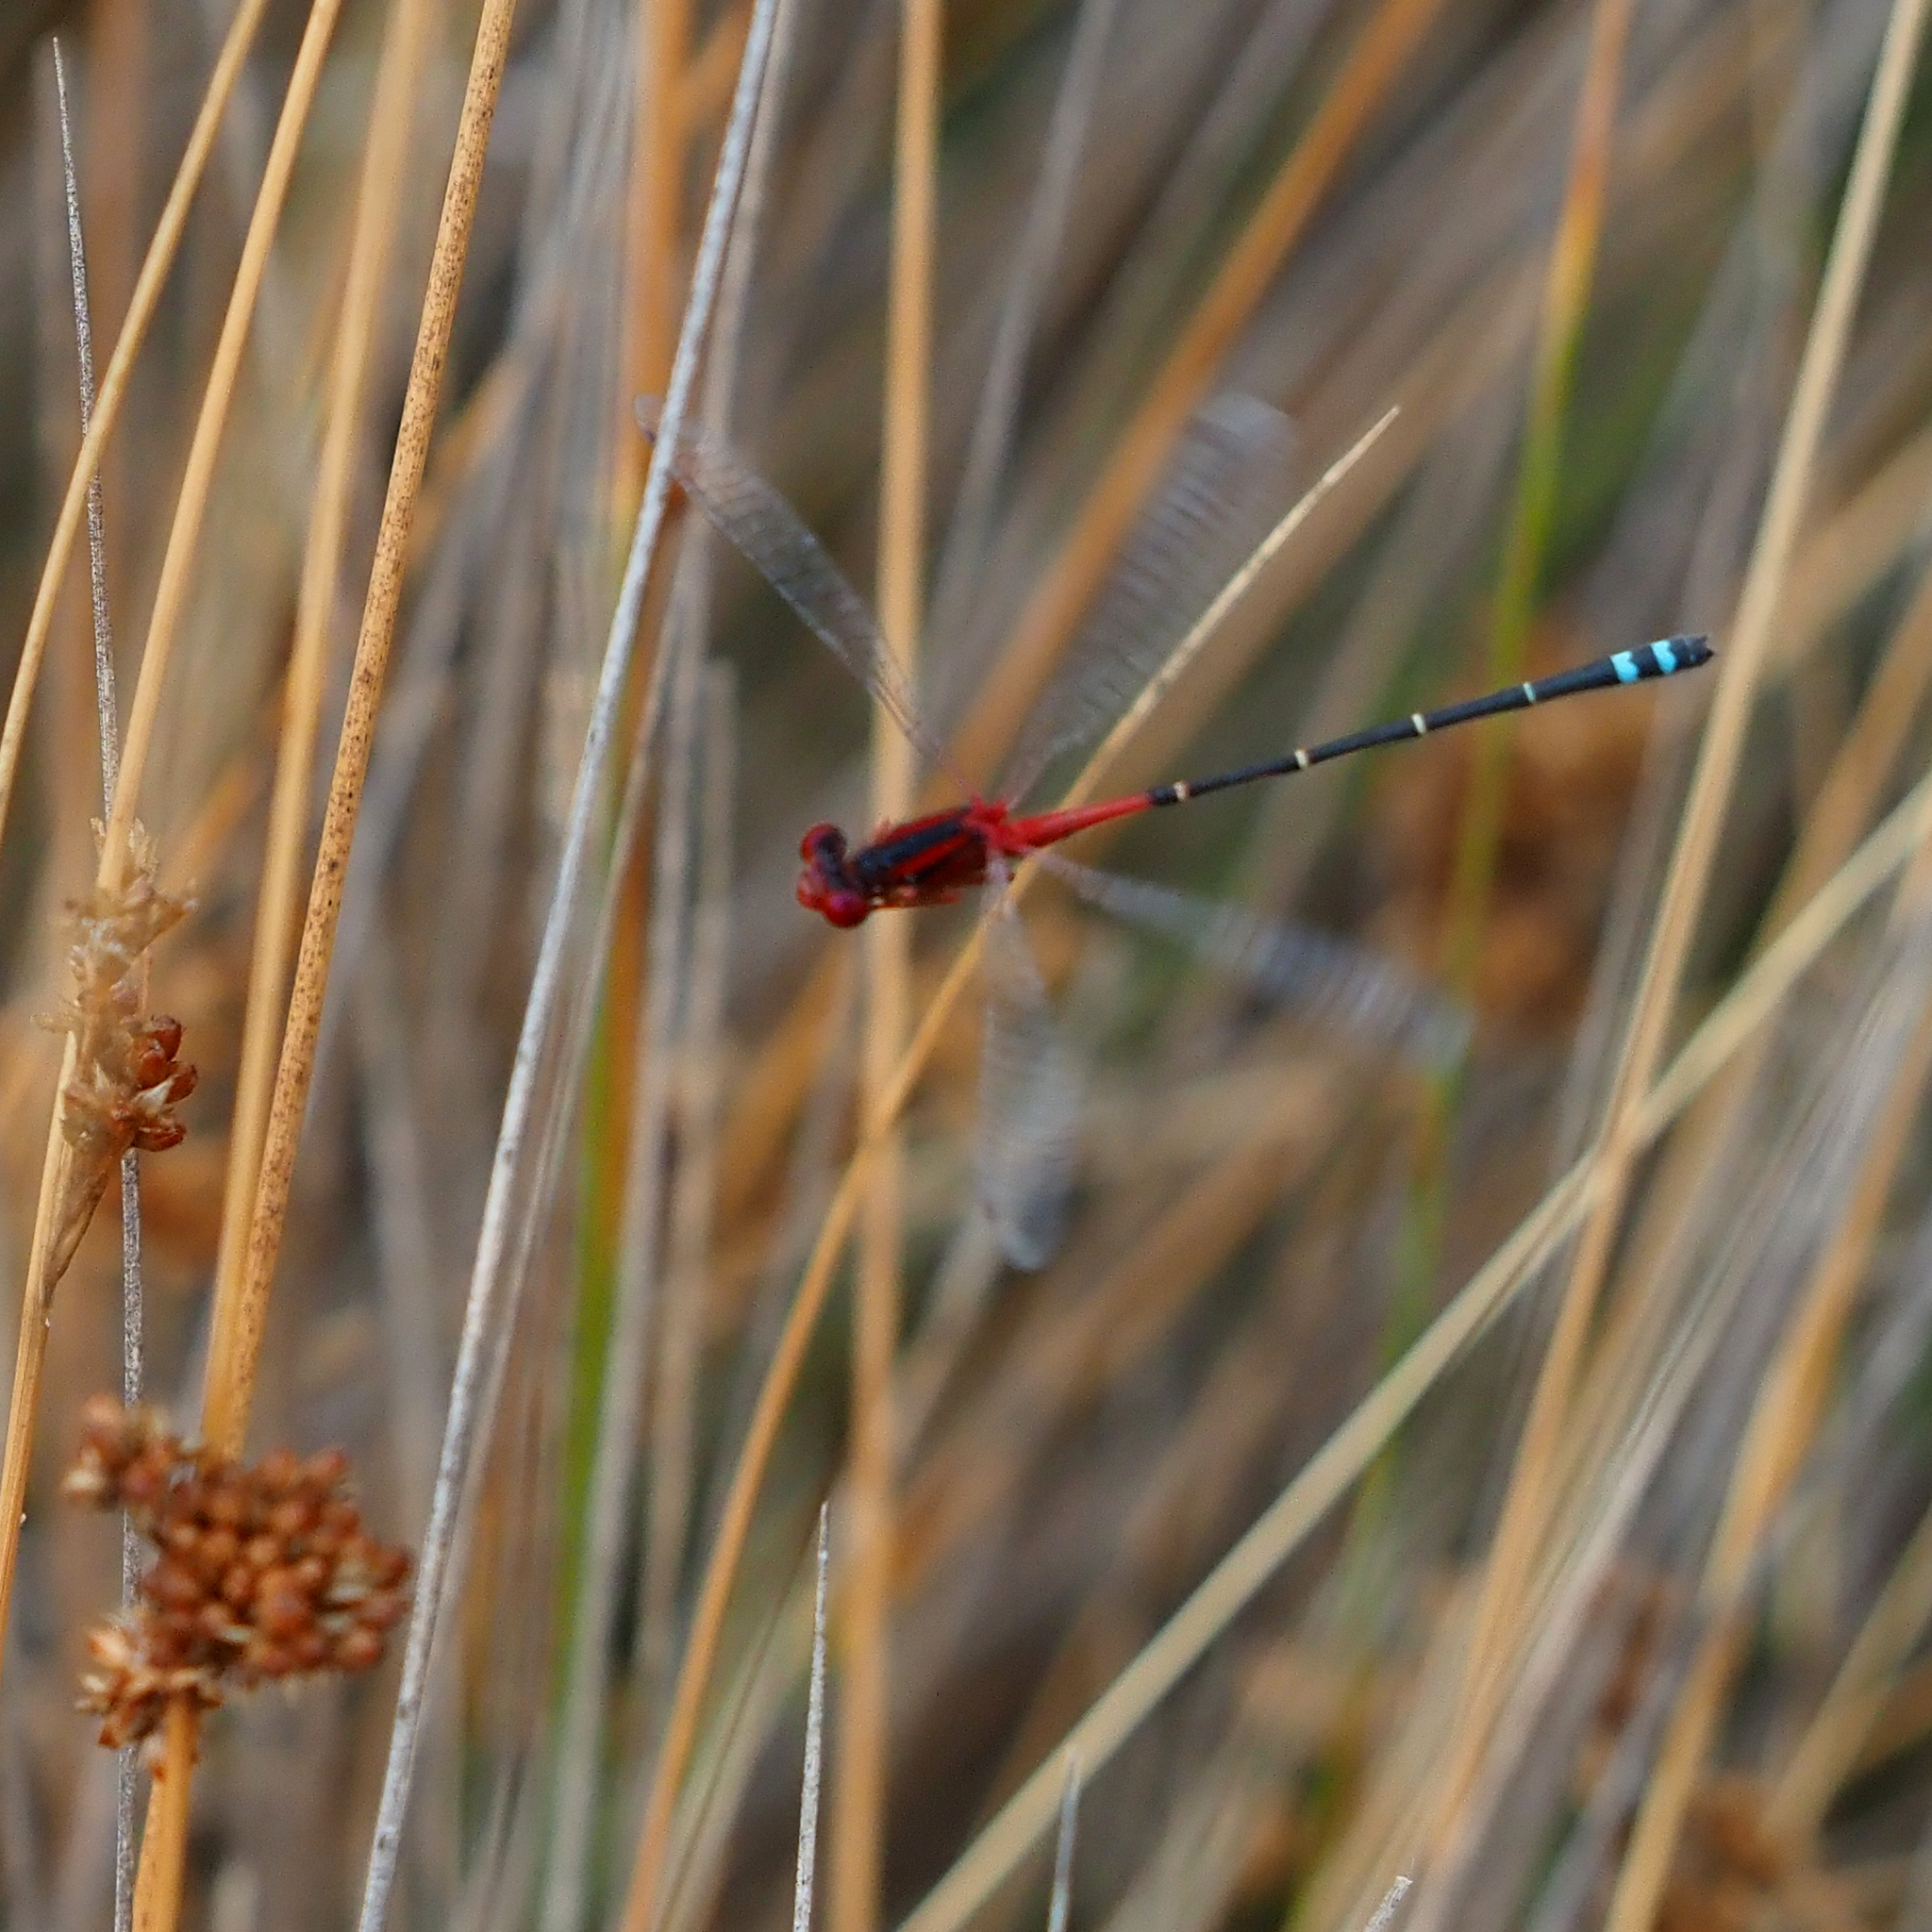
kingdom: Animalia
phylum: Arthropoda
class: Insecta
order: Odonata
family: Coenagrionidae
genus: Xanthagrion
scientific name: Xanthagrion erythroneurum
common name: Red and blue damsel
